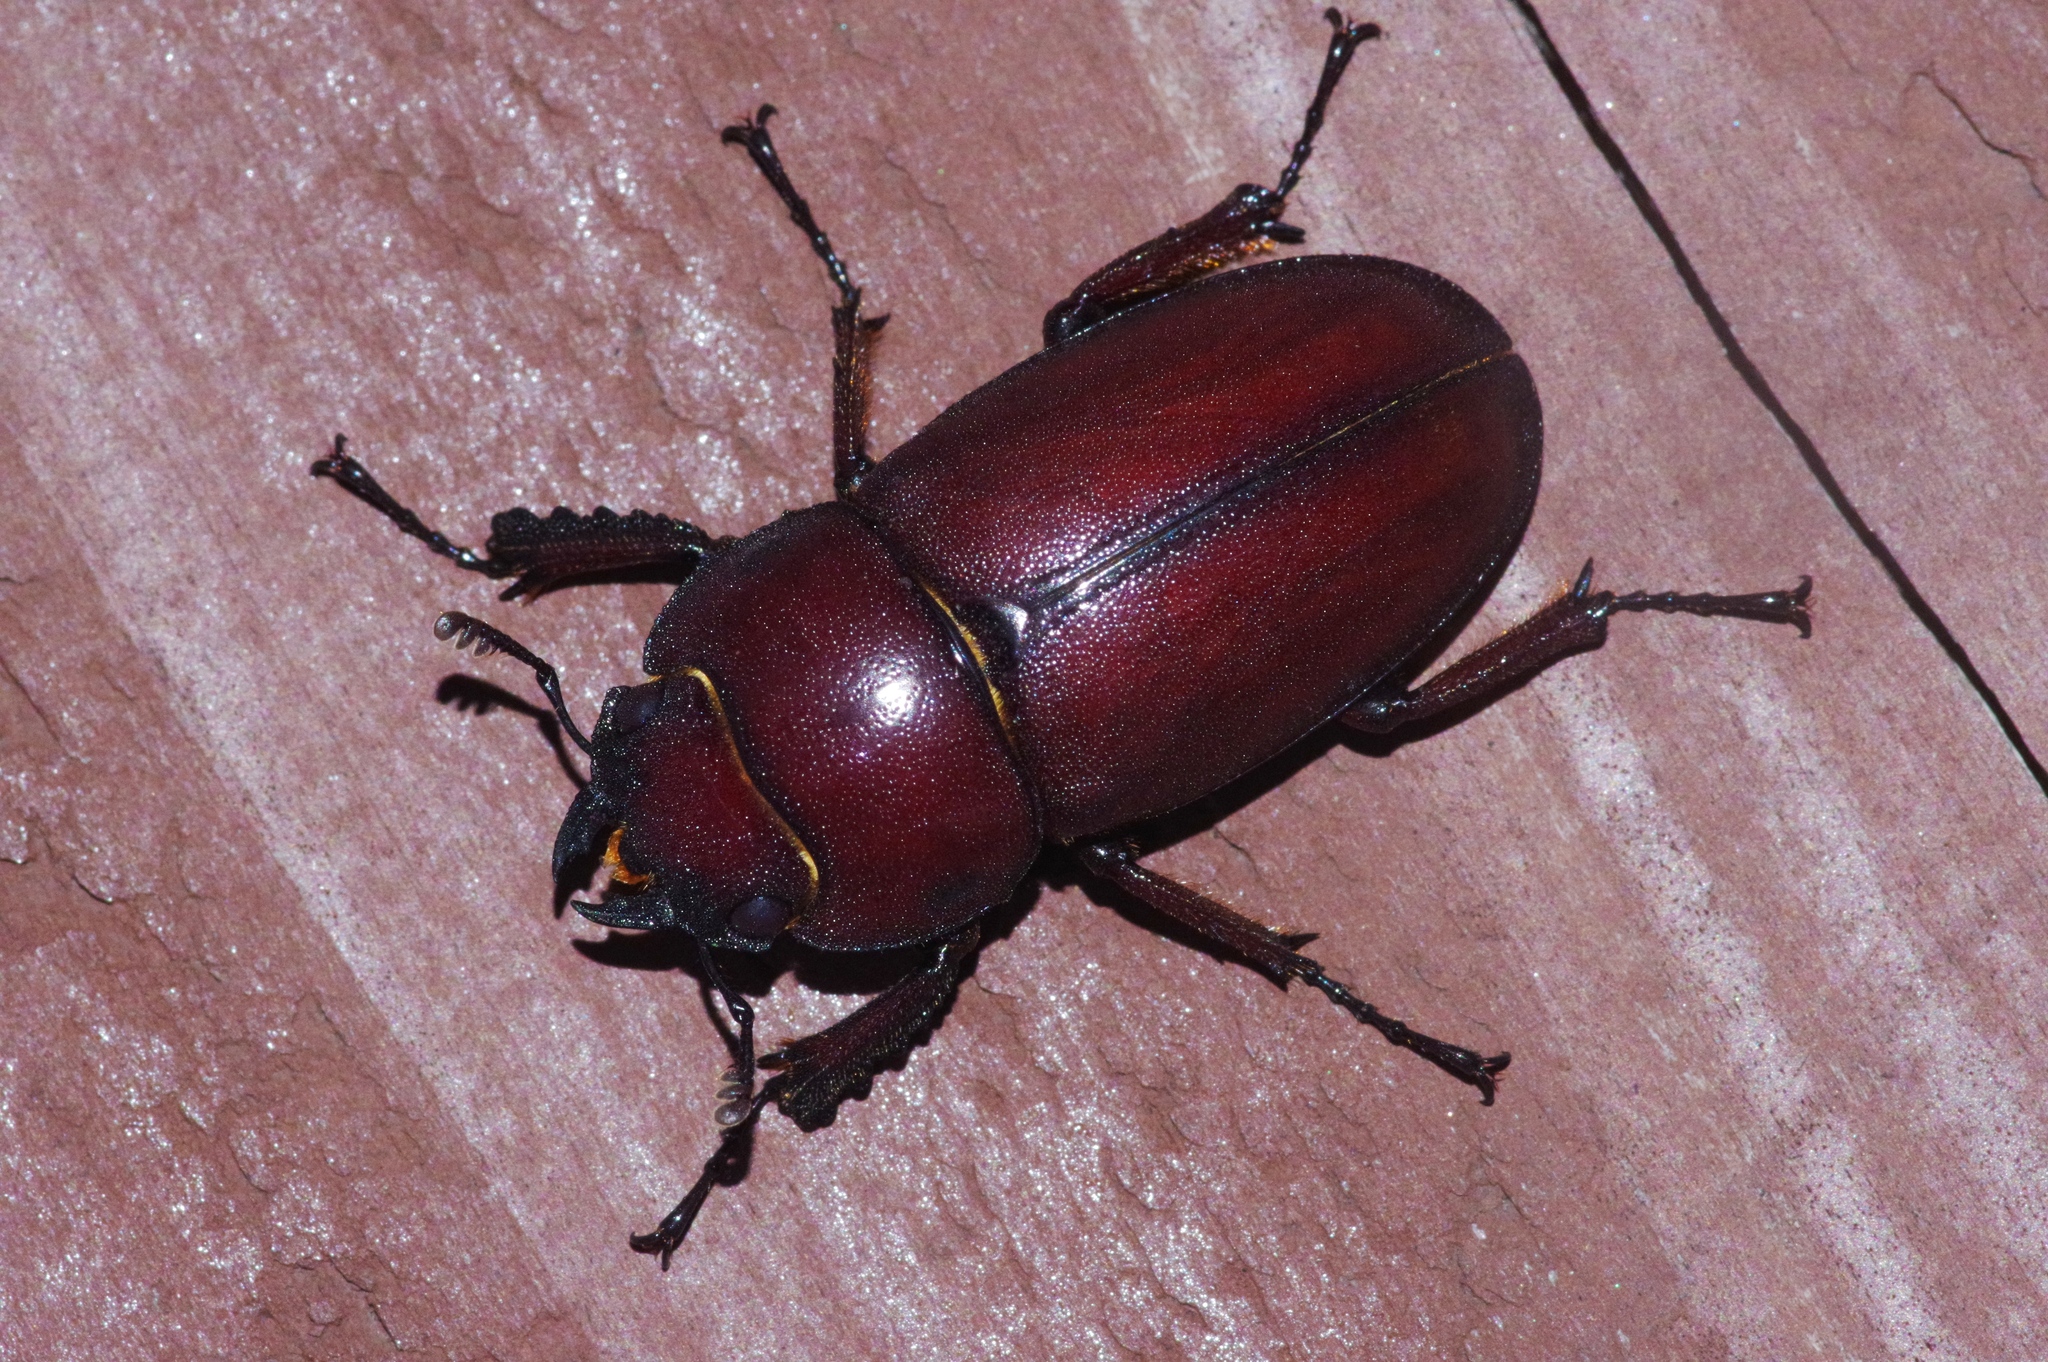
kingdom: Animalia
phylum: Arthropoda
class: Insecta
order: Coleoptera
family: Lucanidae
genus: Prosopocoilus
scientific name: Prosopocoilus dissimilis
